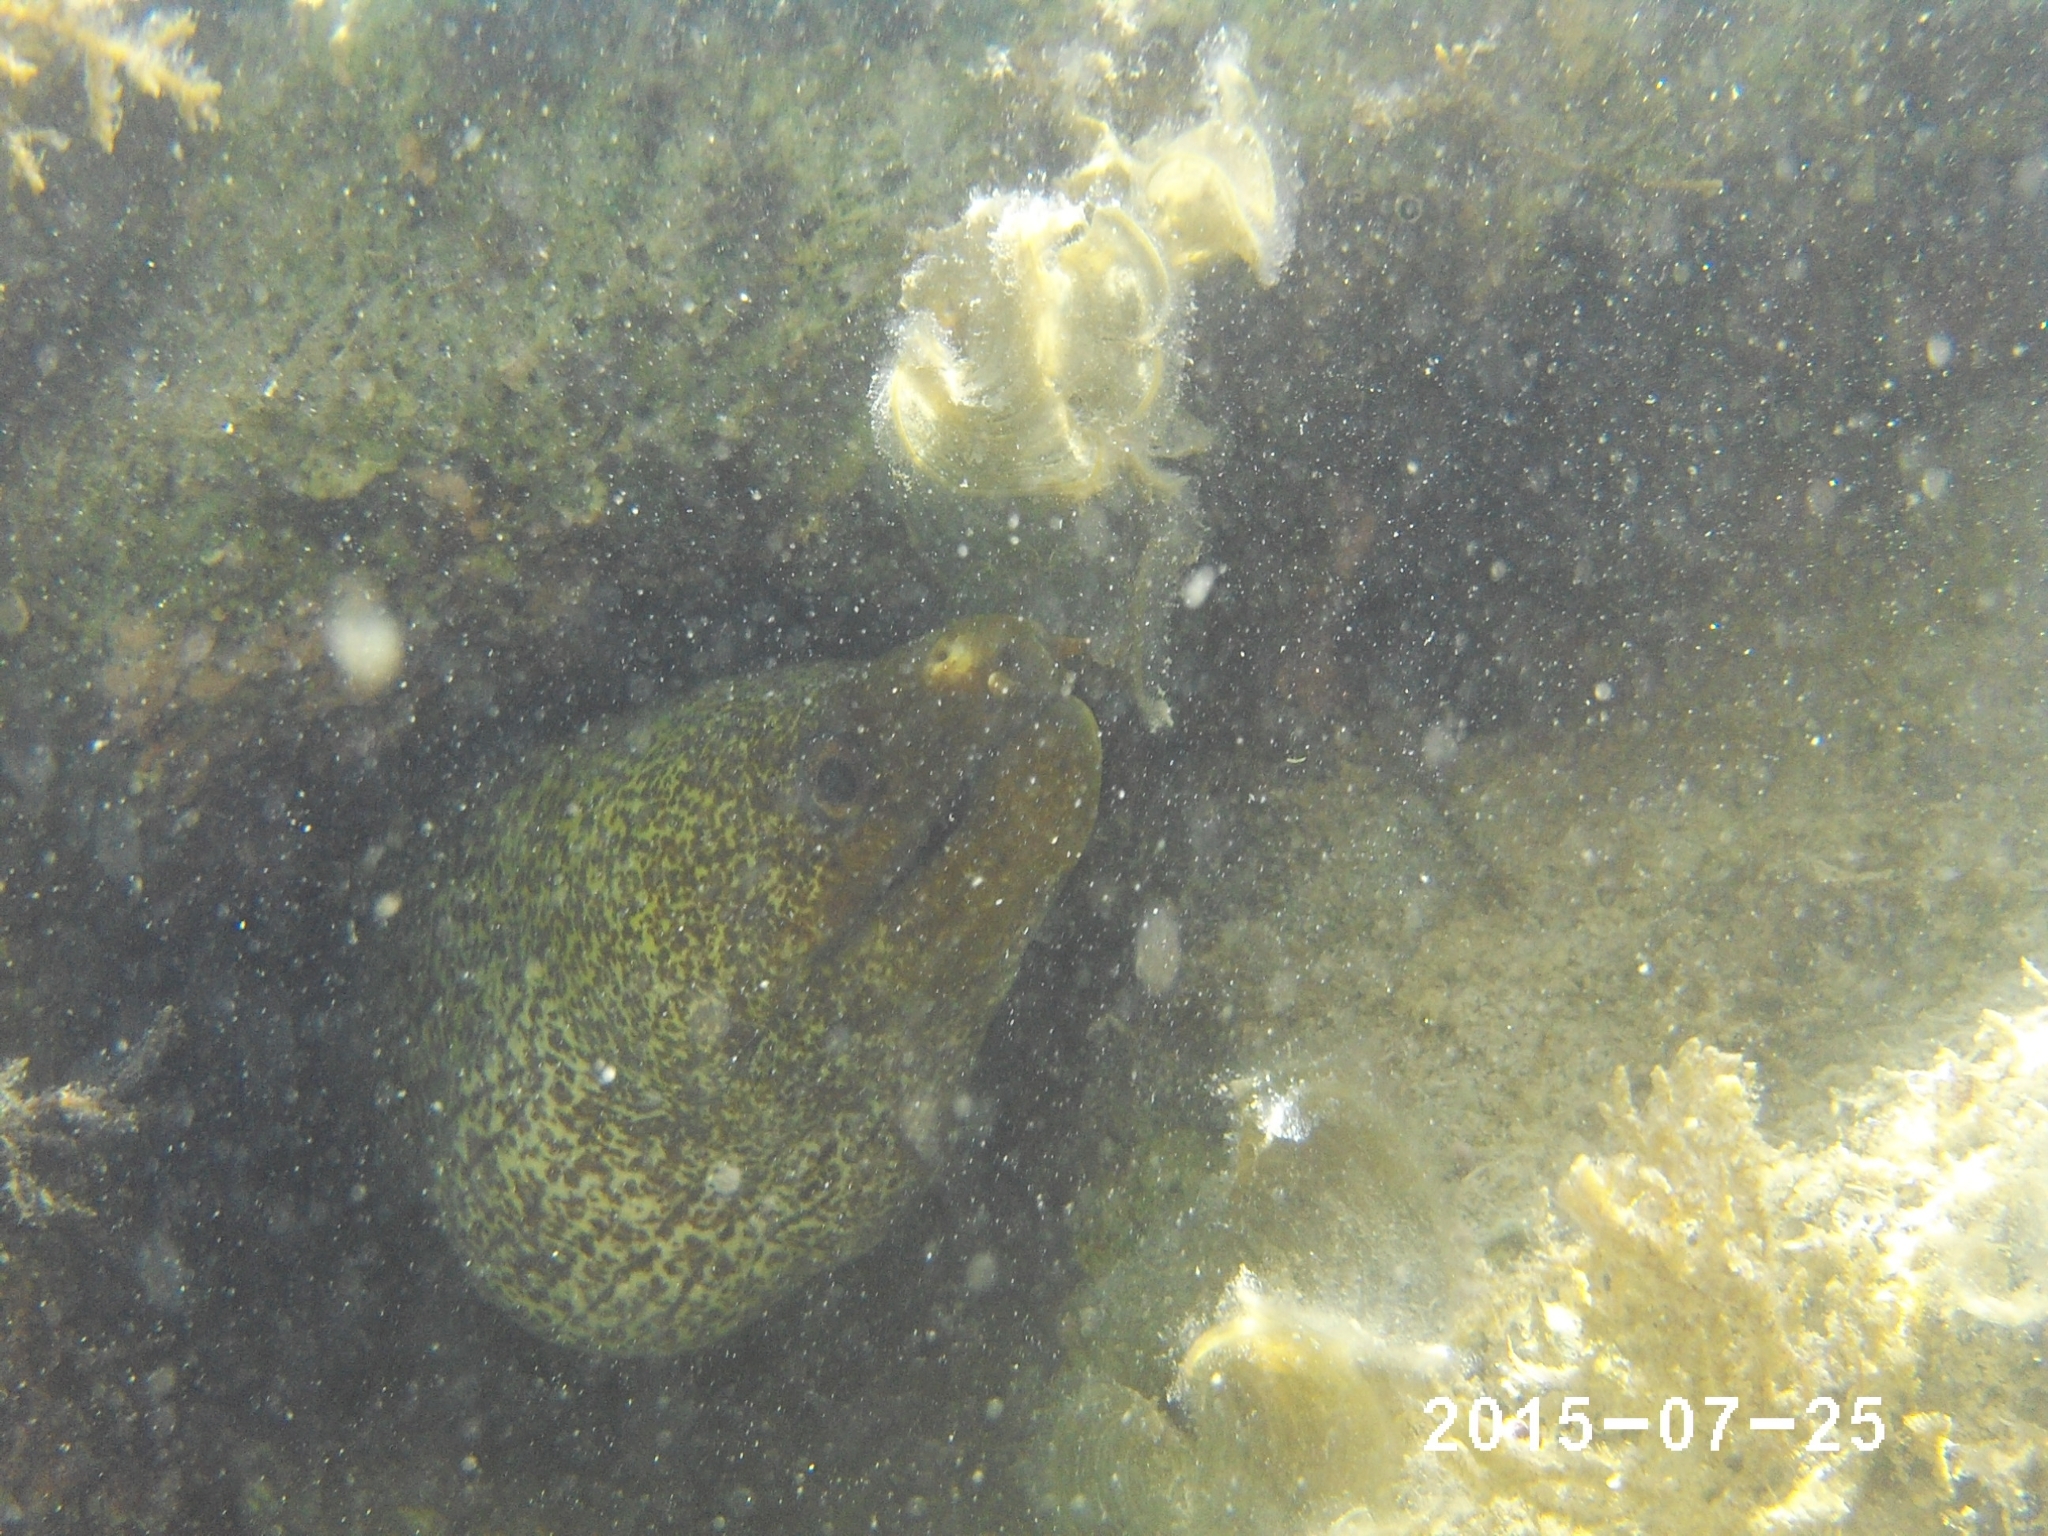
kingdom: Animalia
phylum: Chordata
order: Anguilliformes
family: Muraenidae
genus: Gymnothorax
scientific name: Gymnothorax undulatus
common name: Leopard moray
